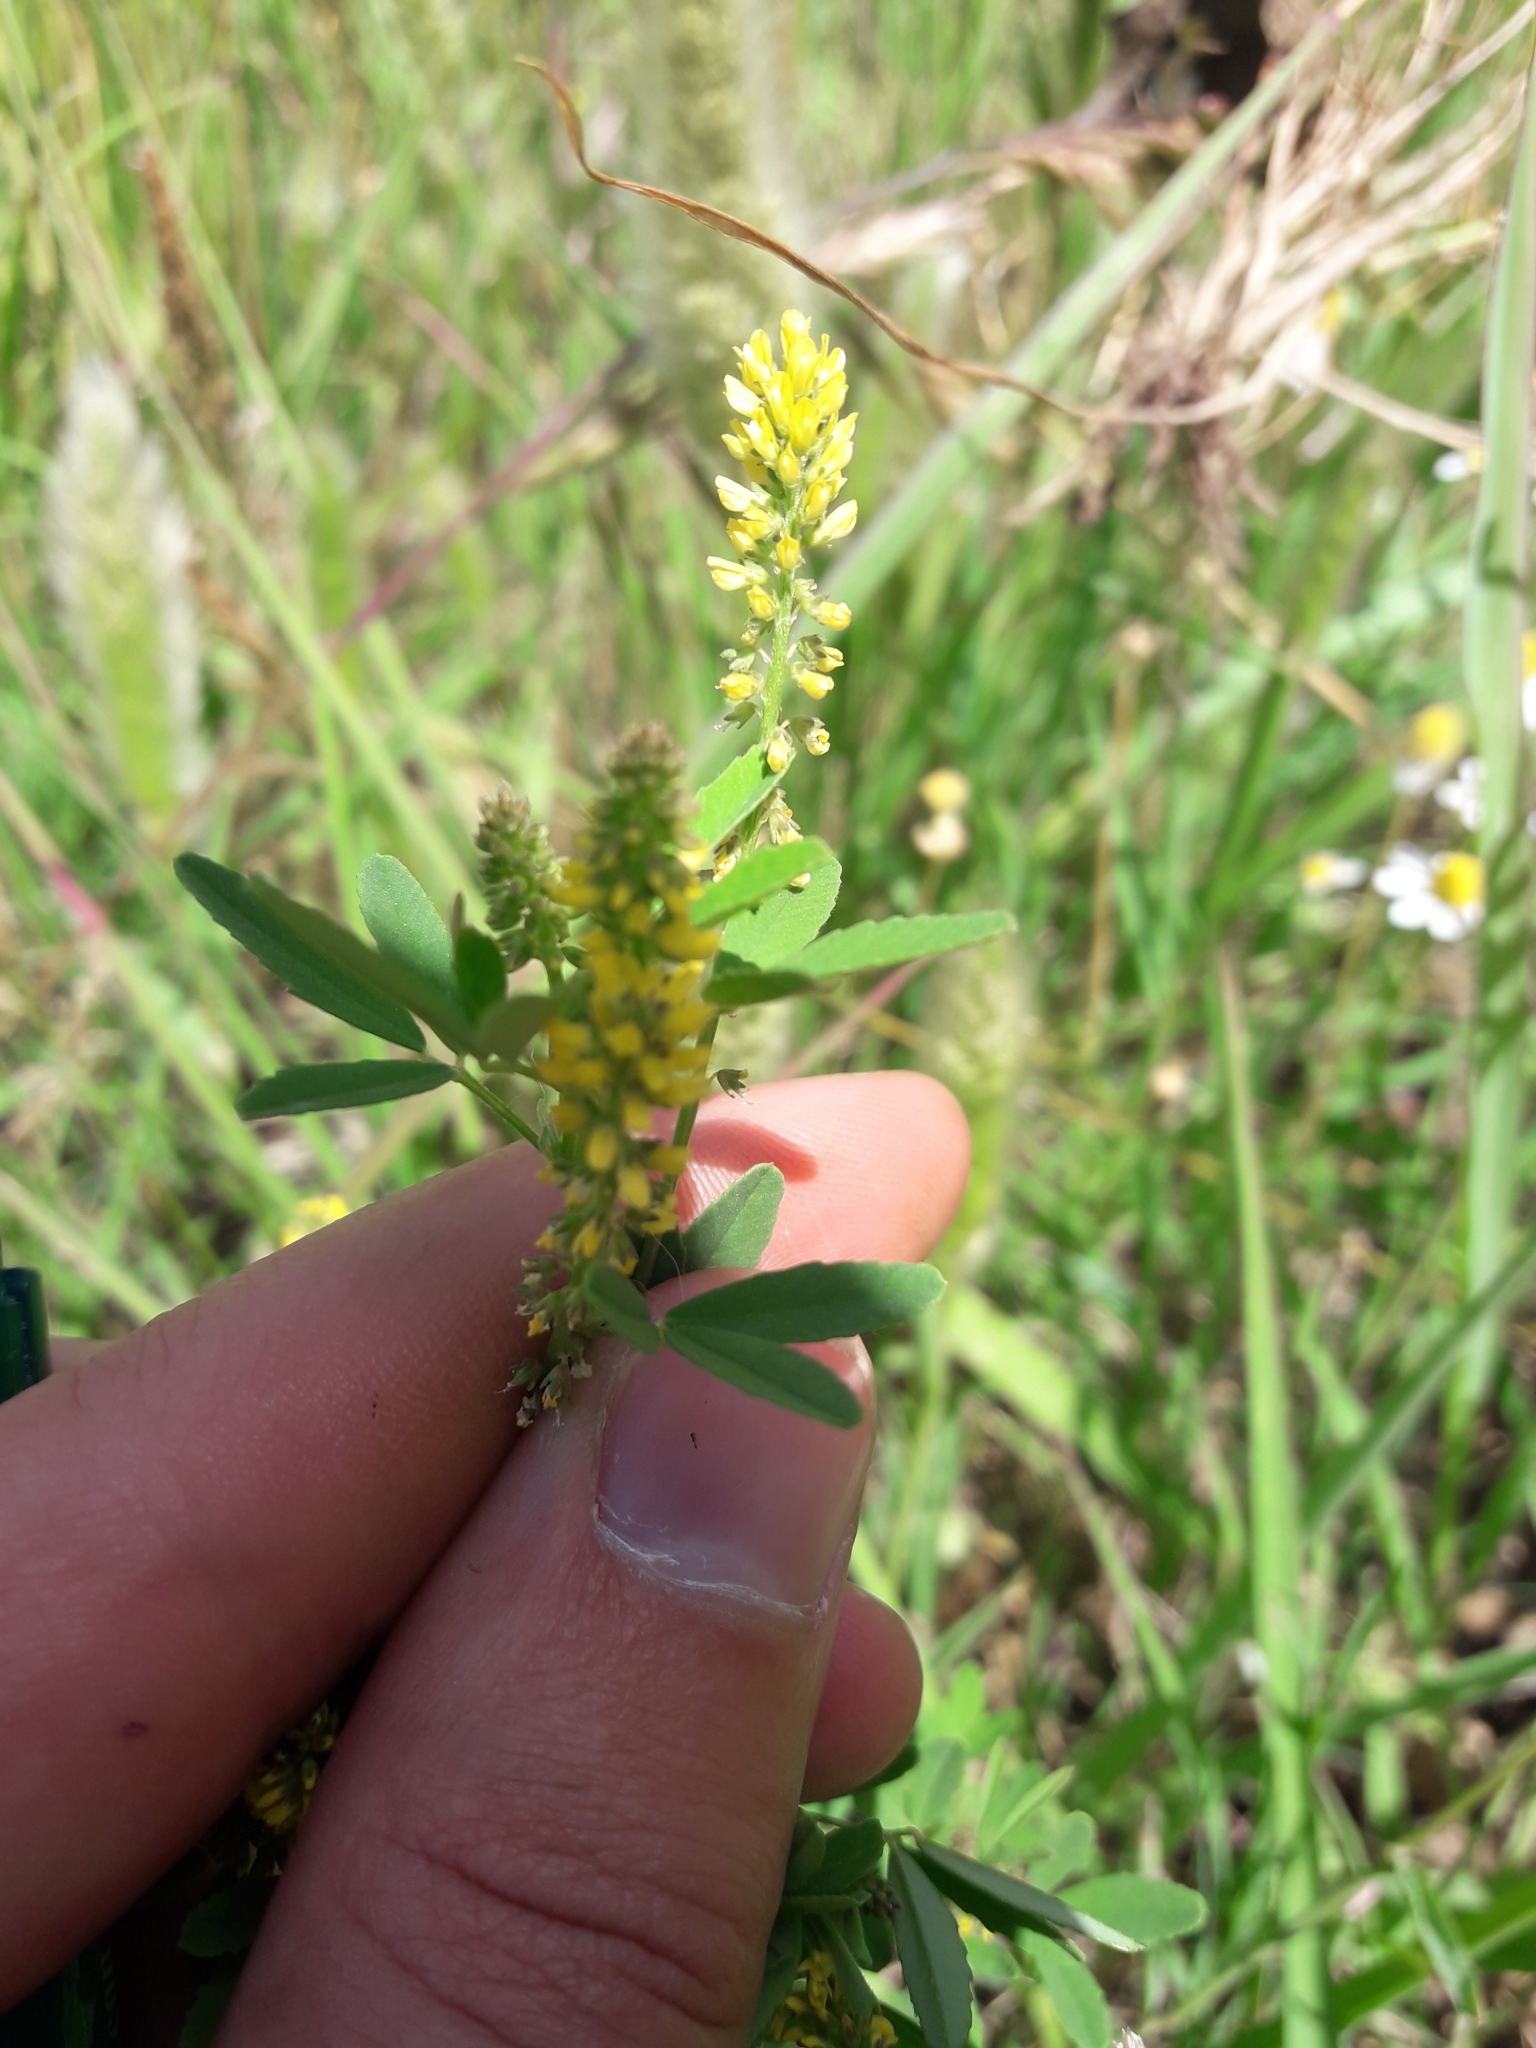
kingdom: Plantae
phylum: Tracheophyta
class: Magnoliopsida
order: Fabales
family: Fabaceae
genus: Melilotus
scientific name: Melilotus indicus
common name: Small melilot
